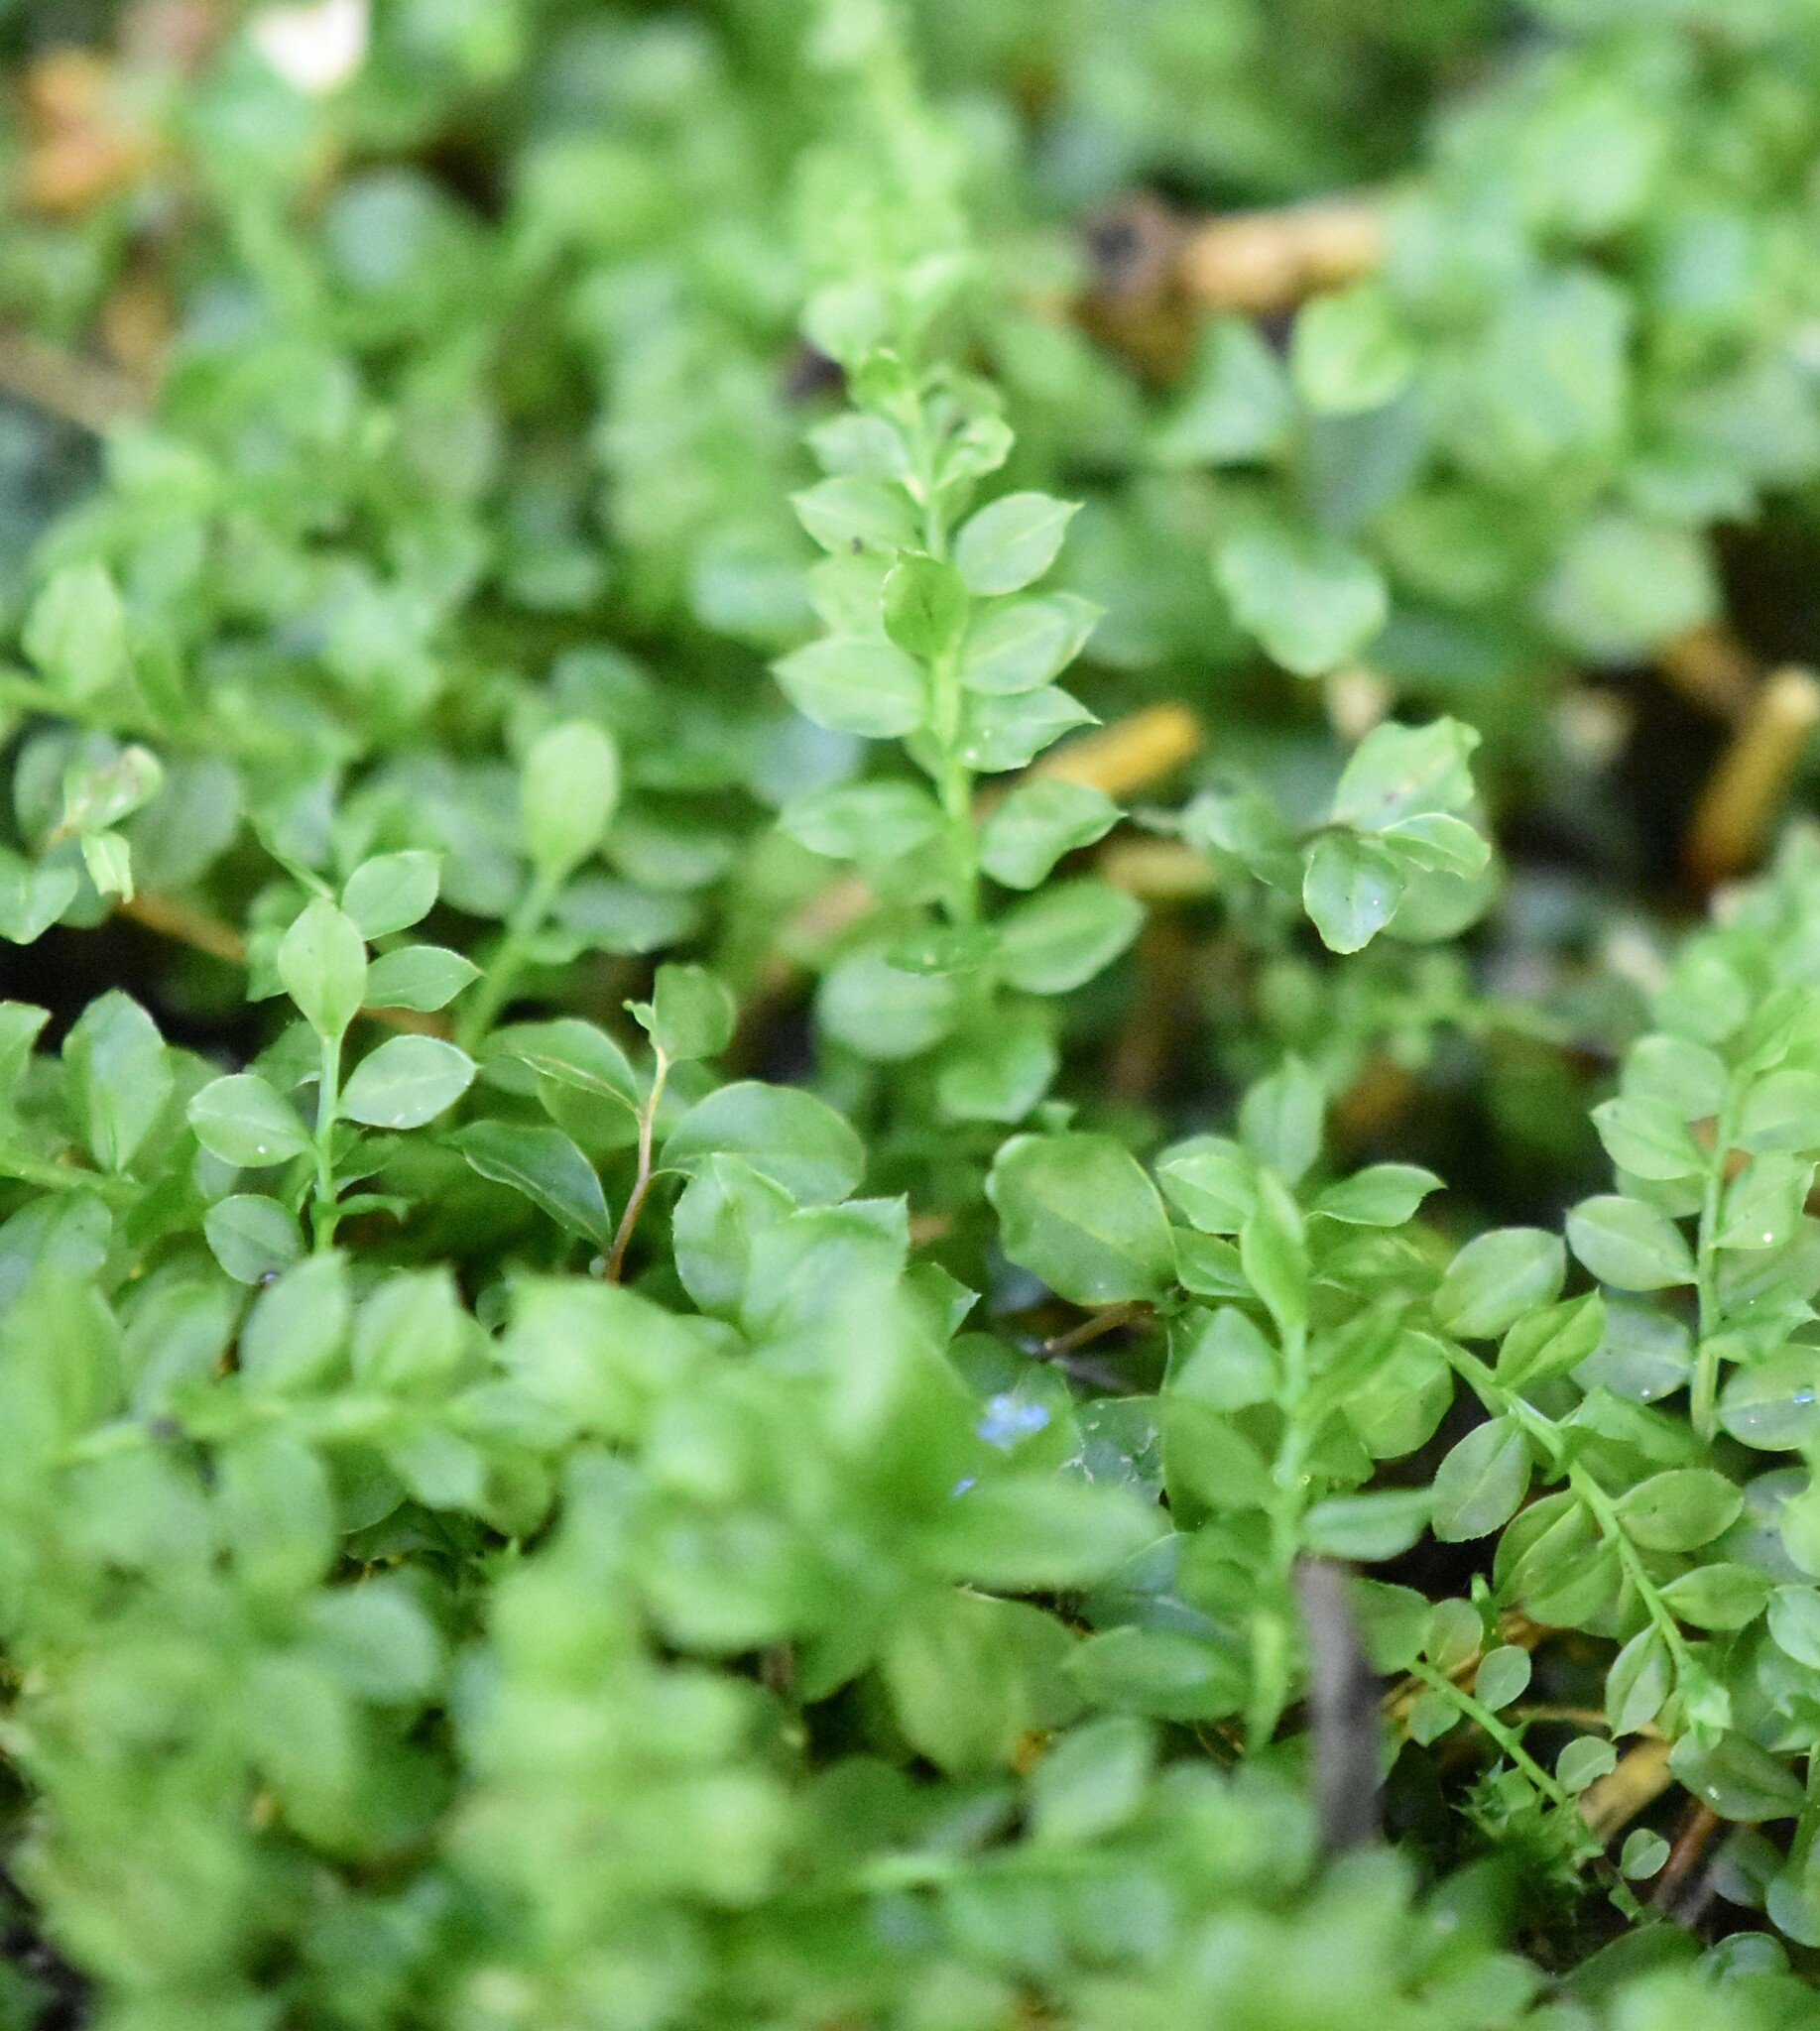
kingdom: Plantae
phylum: Bryophyta
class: Bryopsida
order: Bryales
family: Mniaceae
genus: Plagiomnium
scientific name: Plagiomnium cuspidatum
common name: Woodsy leafy moss
